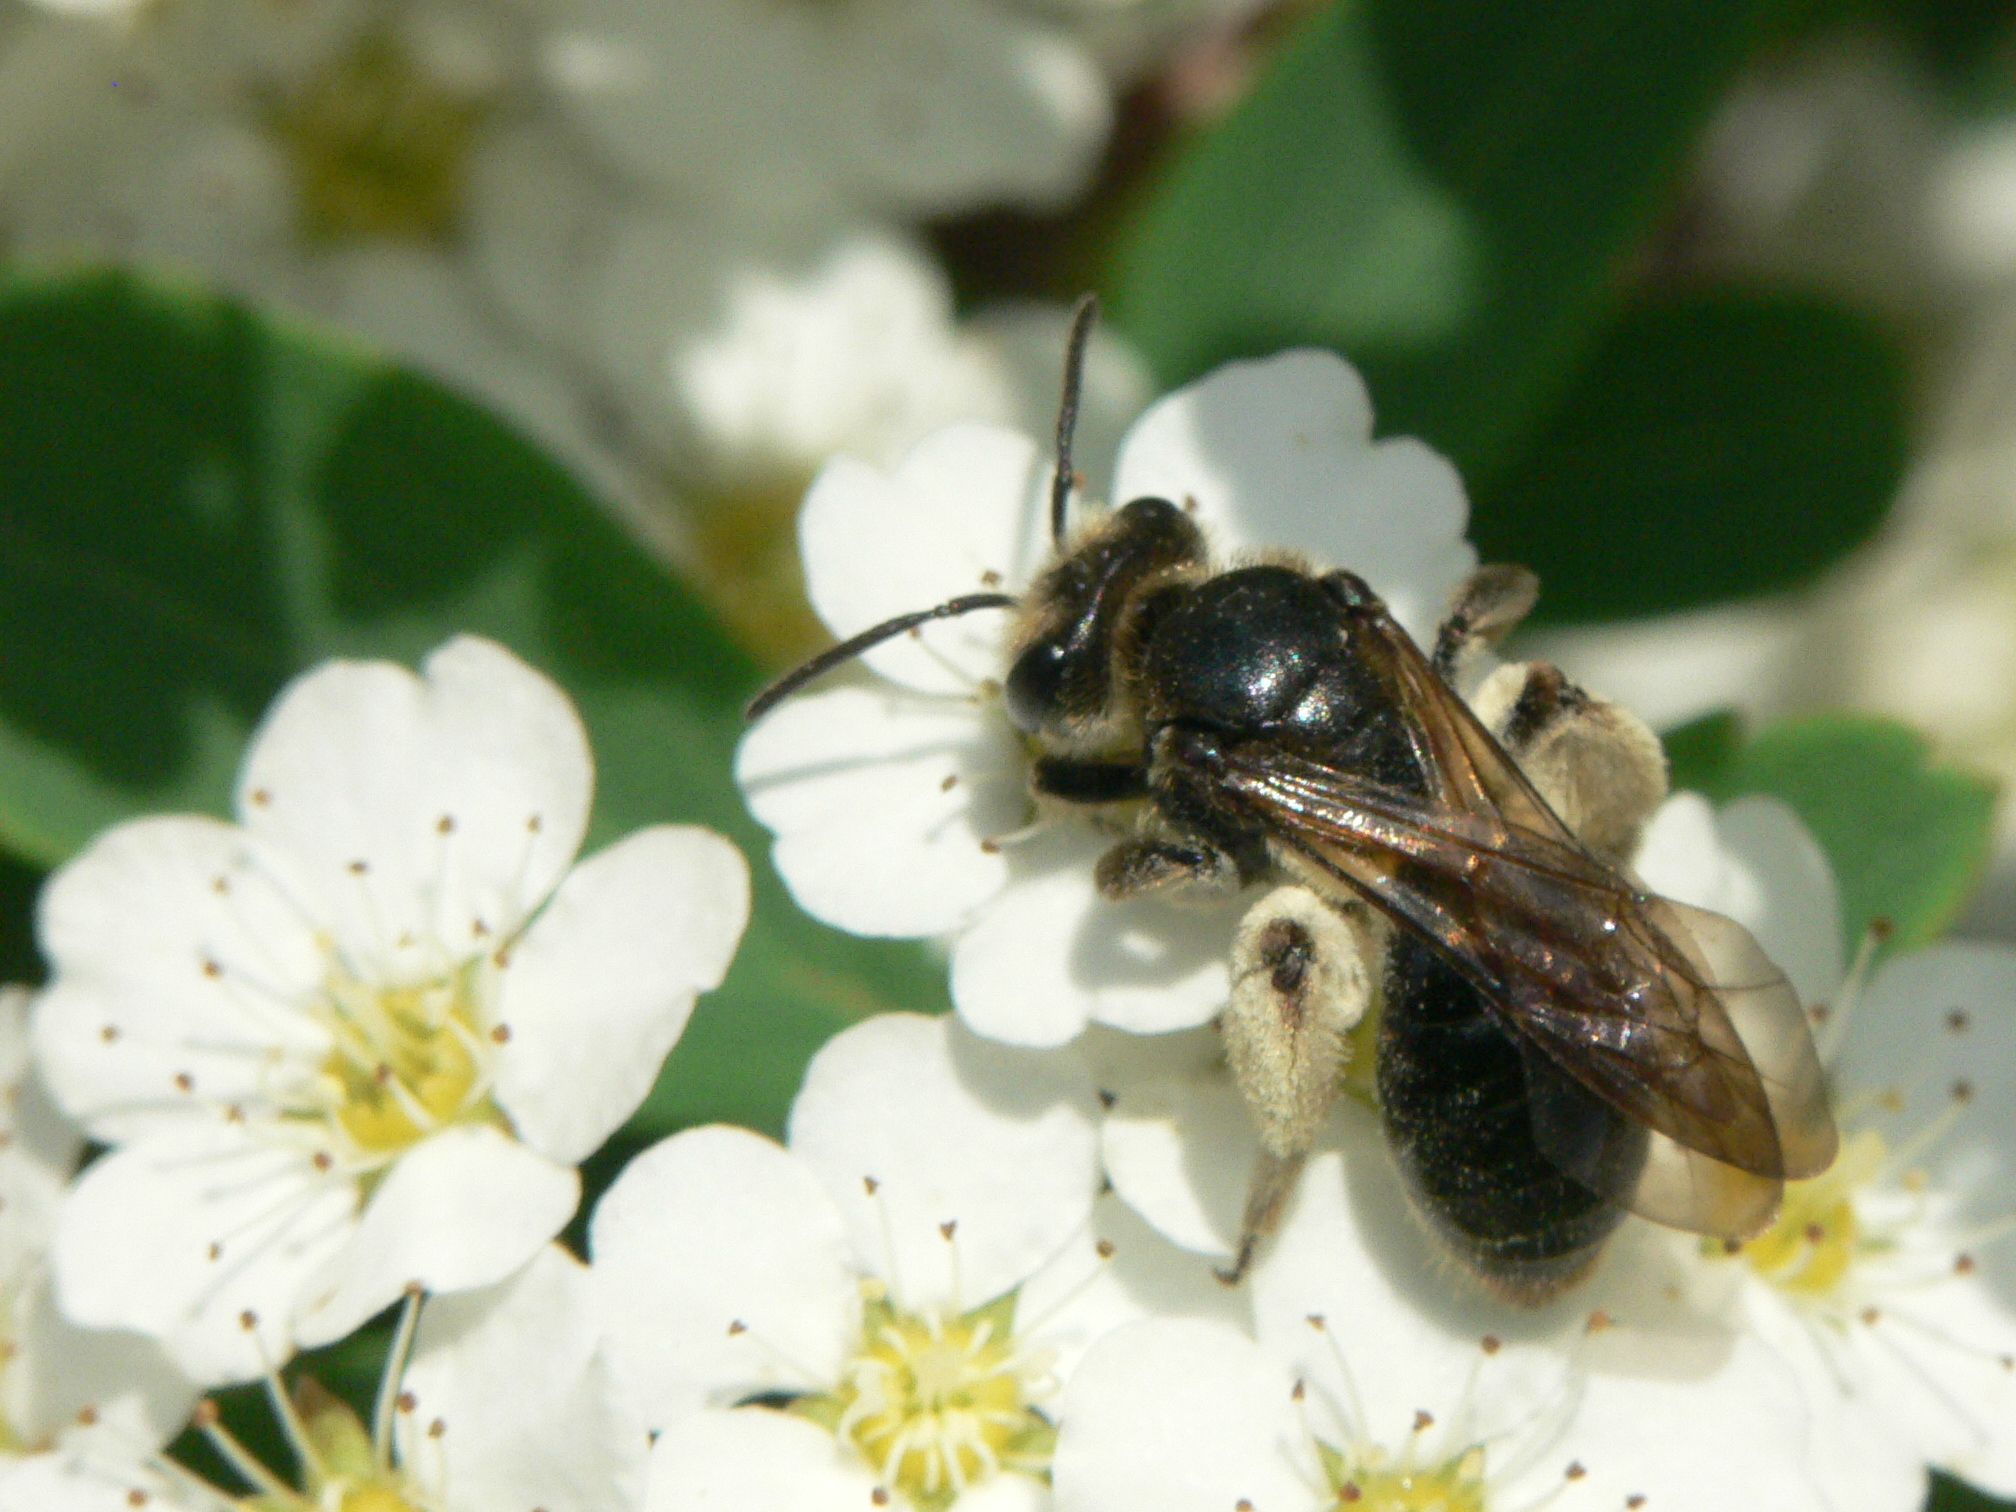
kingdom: Animalia
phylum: Arthropoda
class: Insecta
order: Hymenoptera
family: Andrenidae
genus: Andrena
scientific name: Andrena crataegi
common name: Hawthorn mining bee
